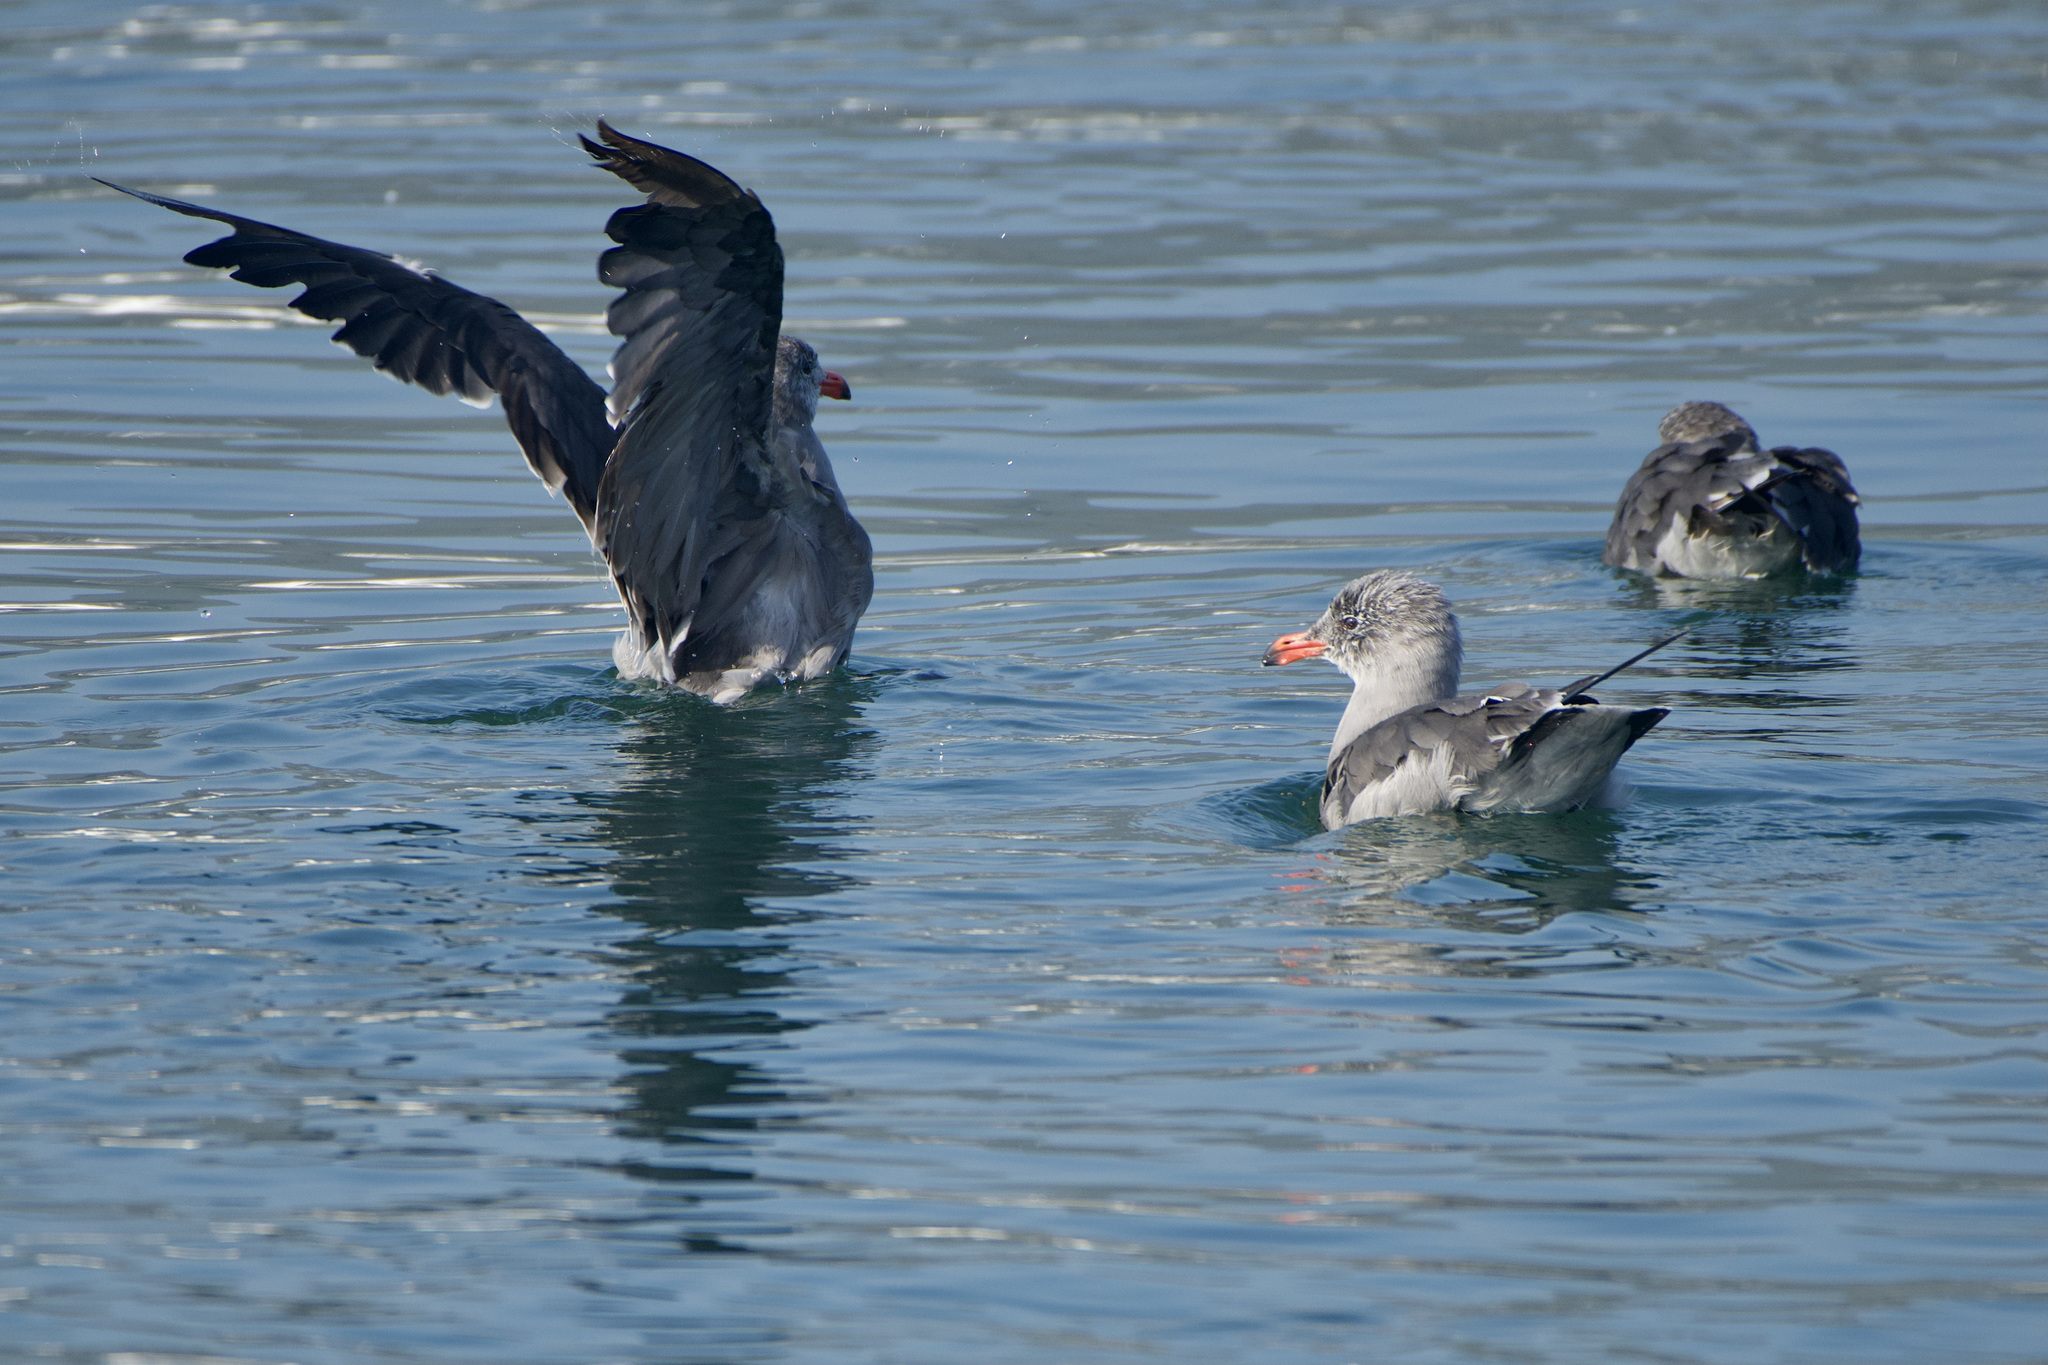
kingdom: Animalia
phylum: Chordata
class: Aves
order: Charadriiformes
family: Laridae
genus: Larus
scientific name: Larus heermanni
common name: Heermann's gull
